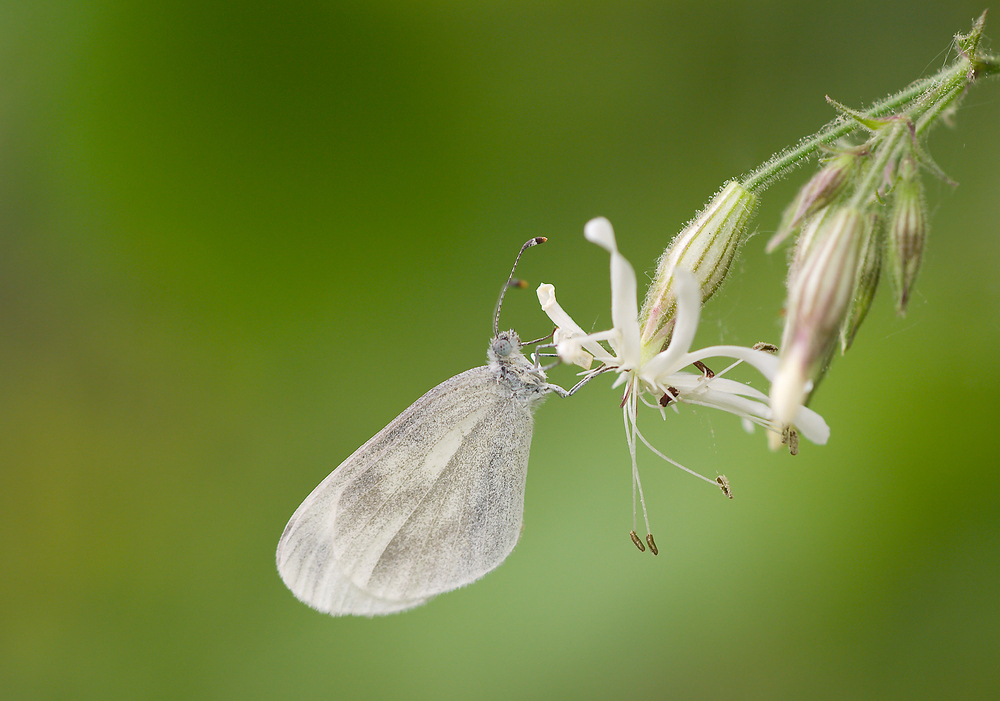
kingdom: Animalia
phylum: Arthropoda
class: Insecta
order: Lepidoptera
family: Pieridae
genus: Leptidea
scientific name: Leptidea sinapis
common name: Wood white
